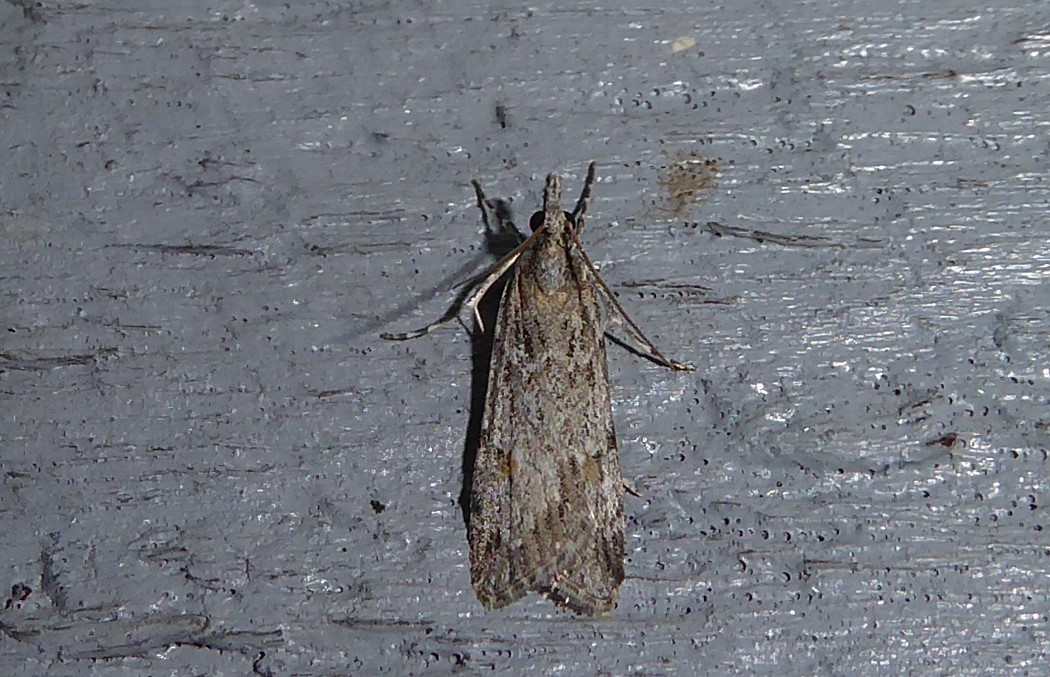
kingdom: Animalia
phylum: Arthropoda
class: Insecta
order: Lepidoptera
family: Crambidae
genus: Scoparia
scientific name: Scoparia chalicodes
